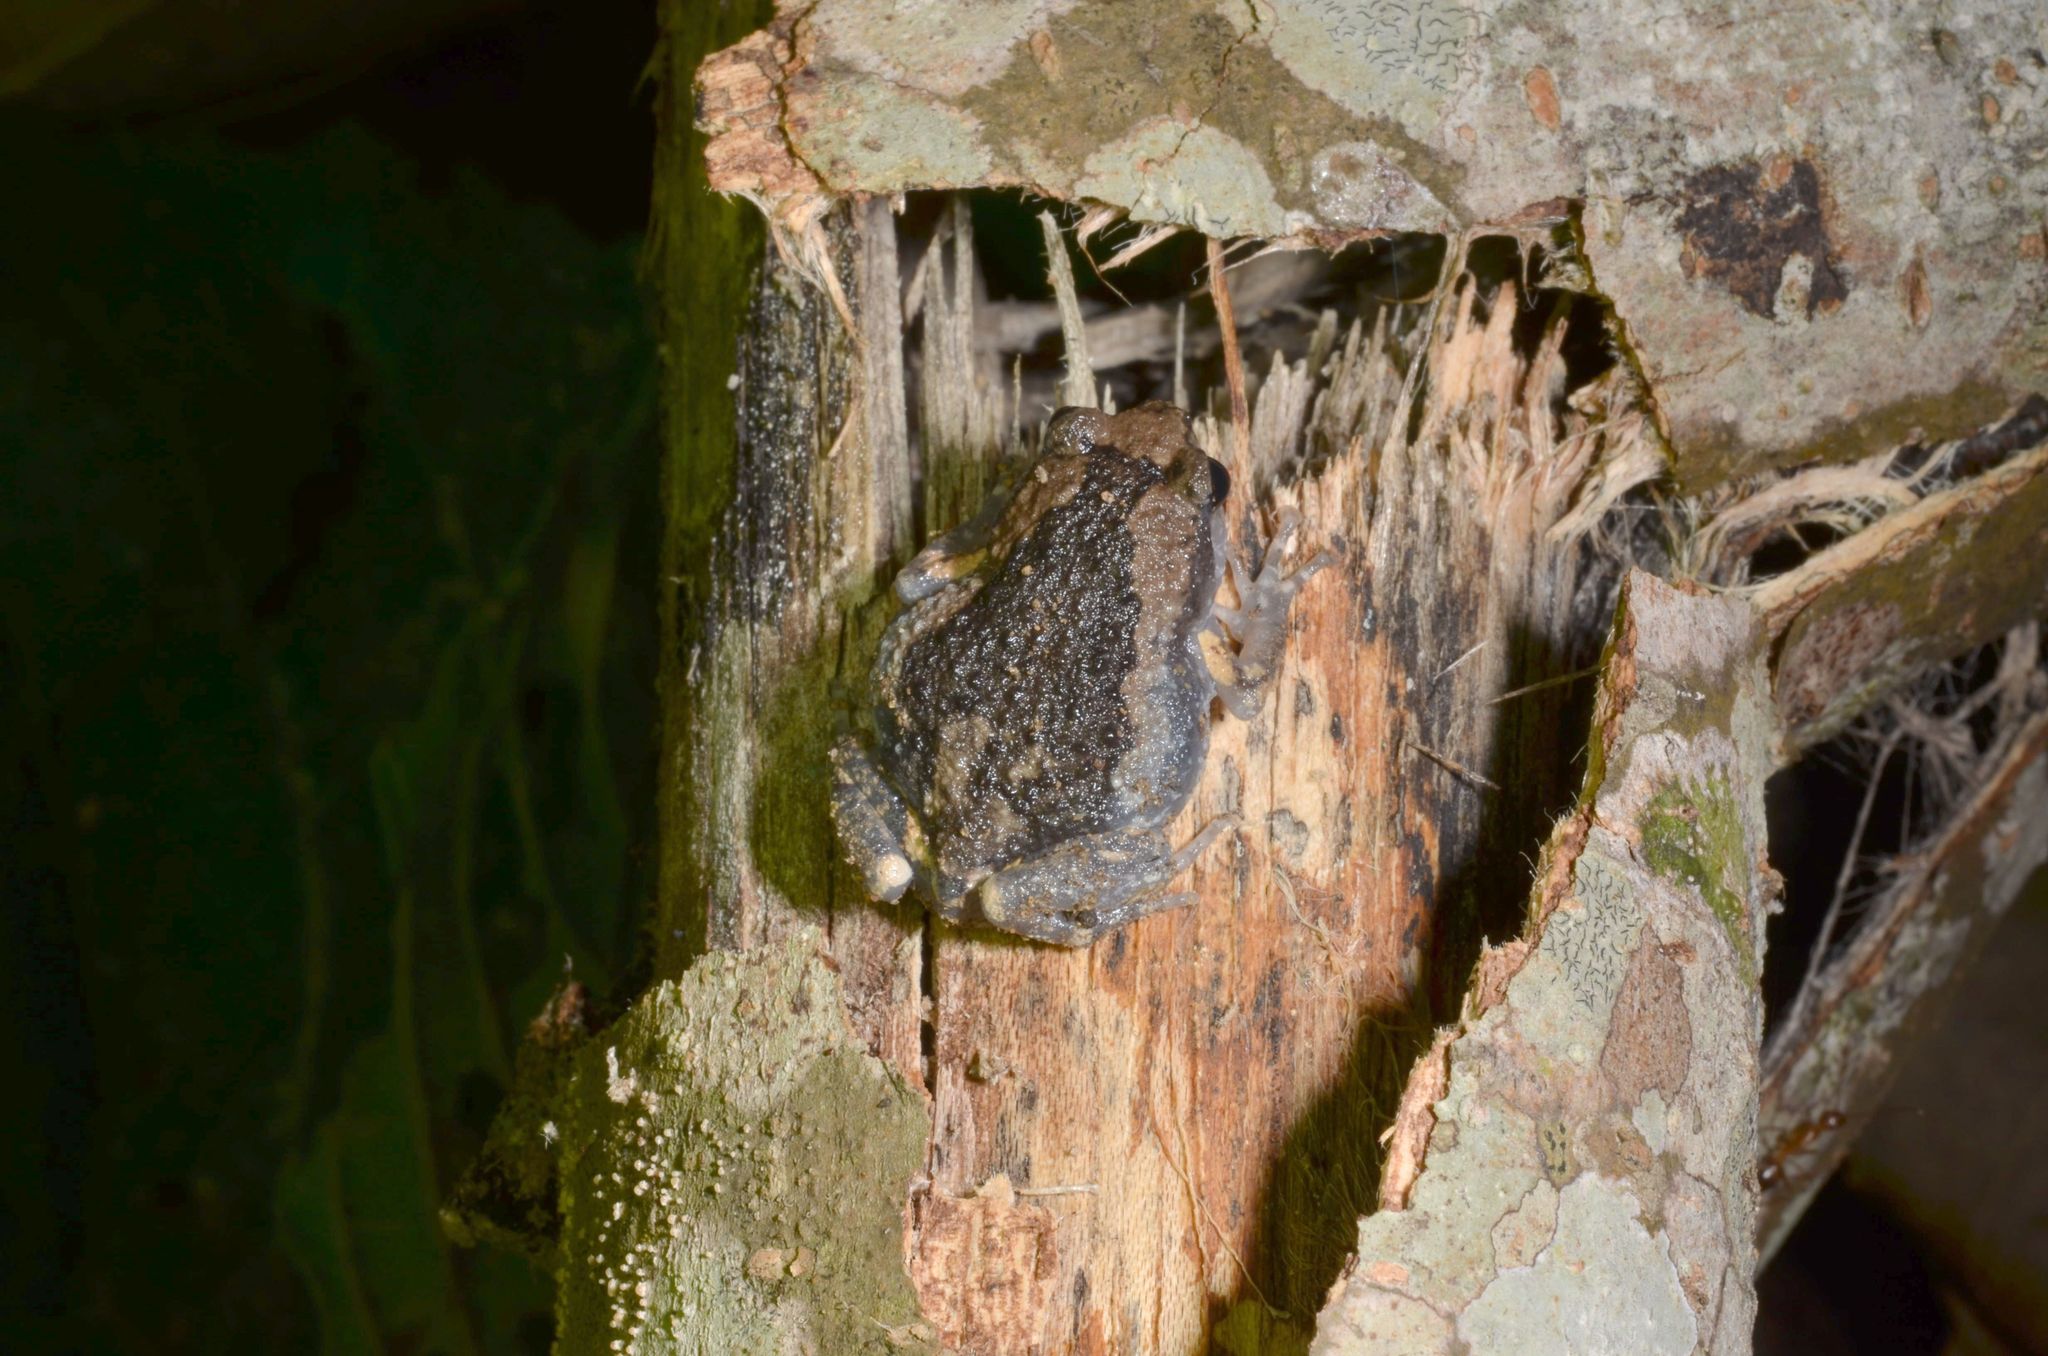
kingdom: Animalia
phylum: Chordata
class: Amphibia
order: Anura
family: Microhylidae
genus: Kaloula
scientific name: Kaloula pulchra
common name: Common,banded bullfrog
